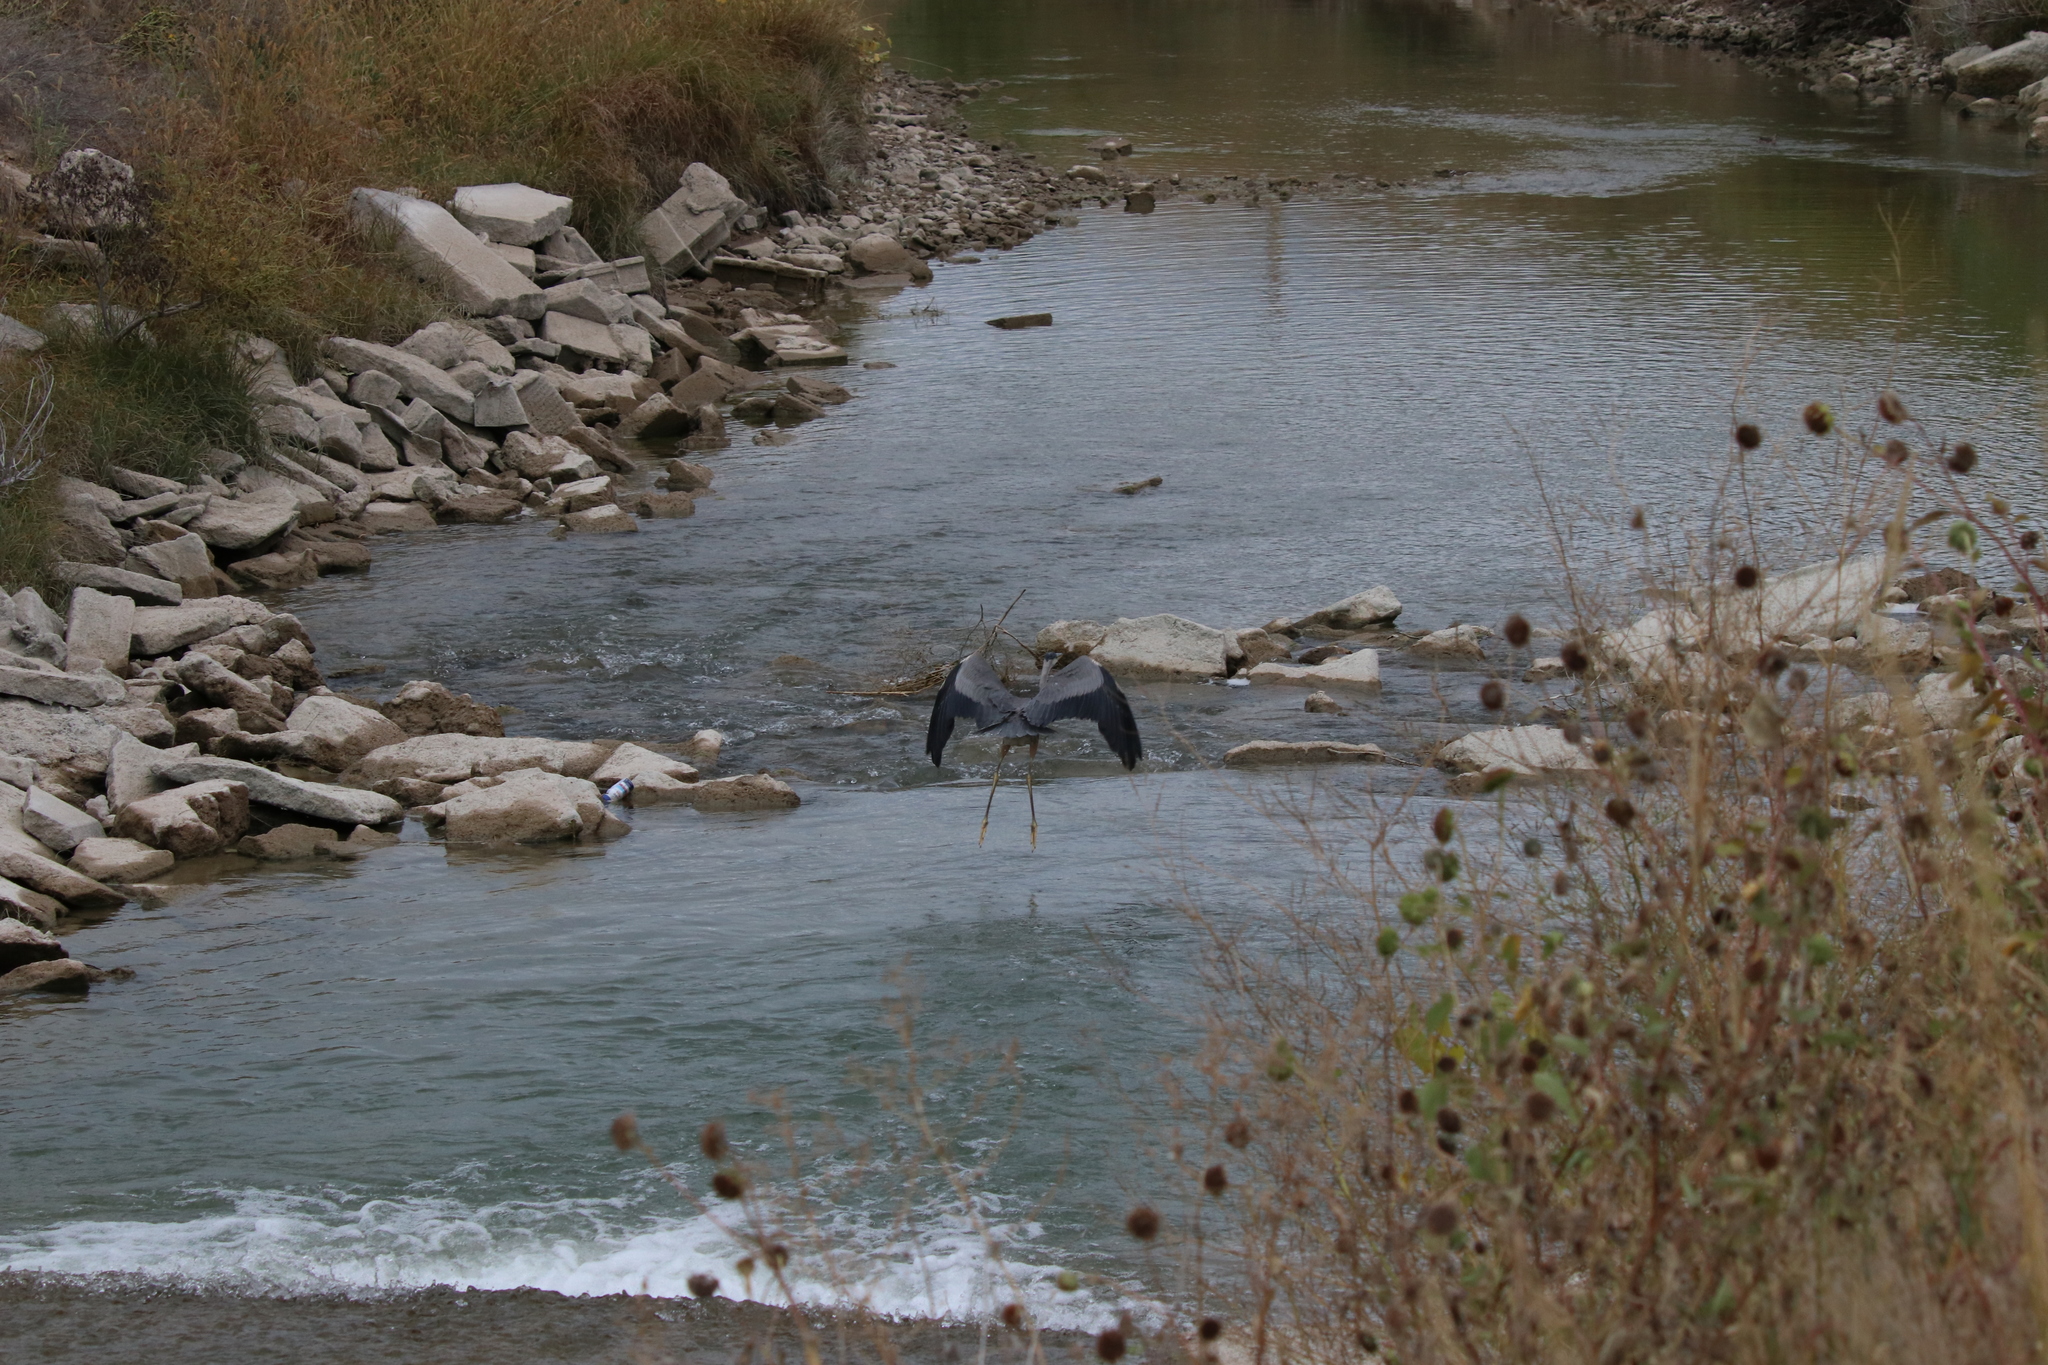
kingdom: Animalia
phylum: Chordata
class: Aves
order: Pelecaniformes
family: Ardeidae
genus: Ardea
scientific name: Ardea herodias
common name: Great blue heron
